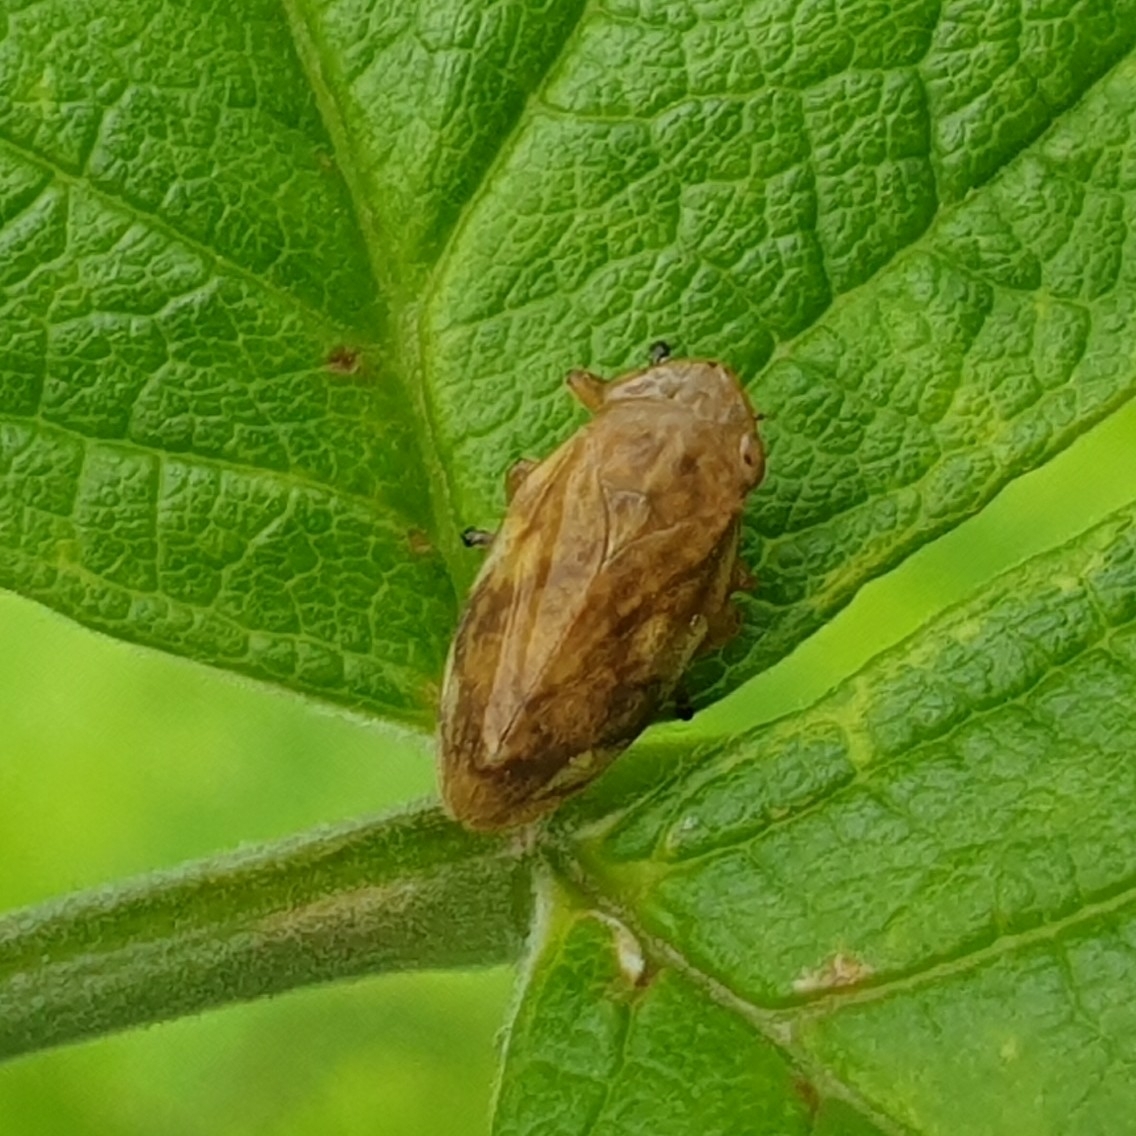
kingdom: Animalia
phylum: Arthropoda
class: Insecta
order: Hemiptera
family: Aphrophoridae
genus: Philaenus
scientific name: Philaenus spumarius
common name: Meadow spittlebug
